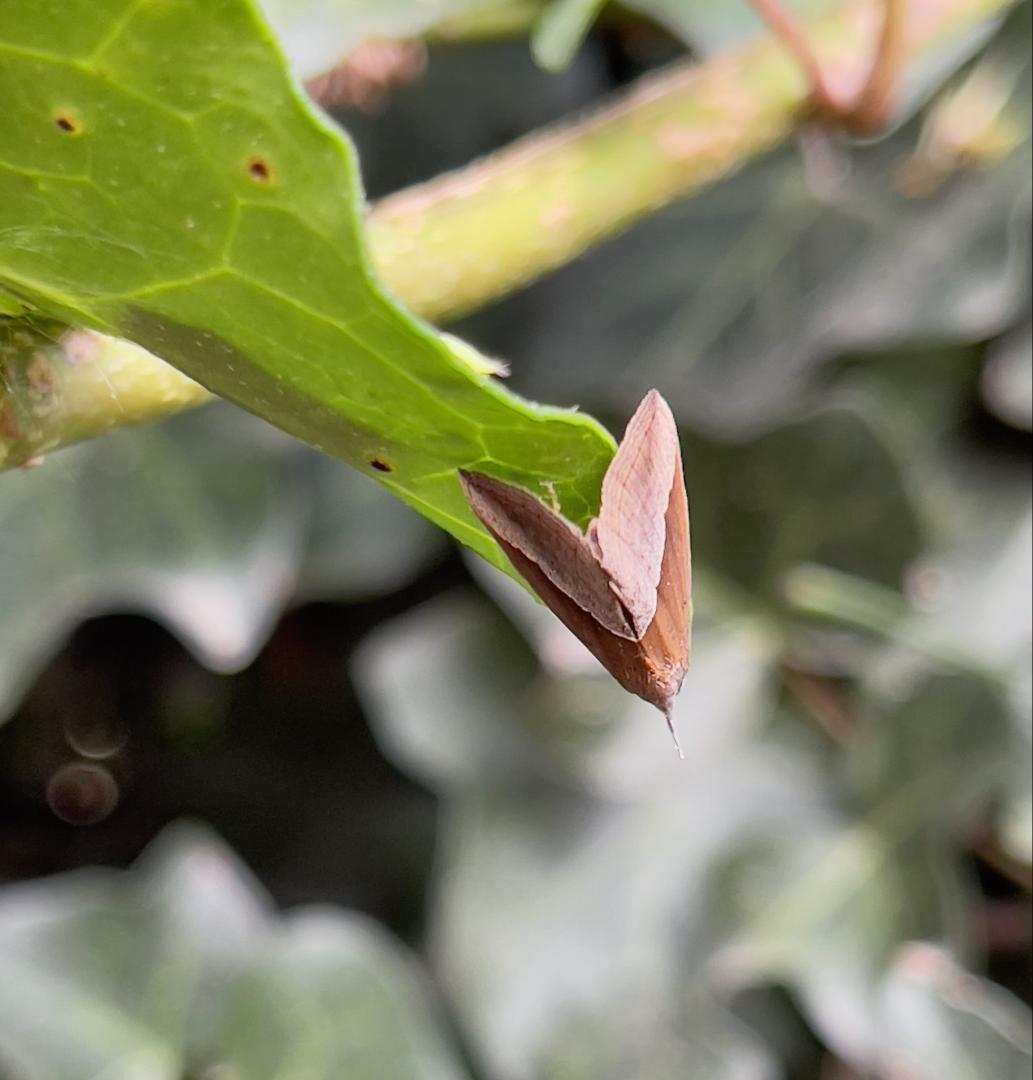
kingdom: Animalia
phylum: Arthropoda
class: Insecta
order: Lepidoptera
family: Erebidae
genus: Hypena
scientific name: Hypena lividalis
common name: Chevron snout
